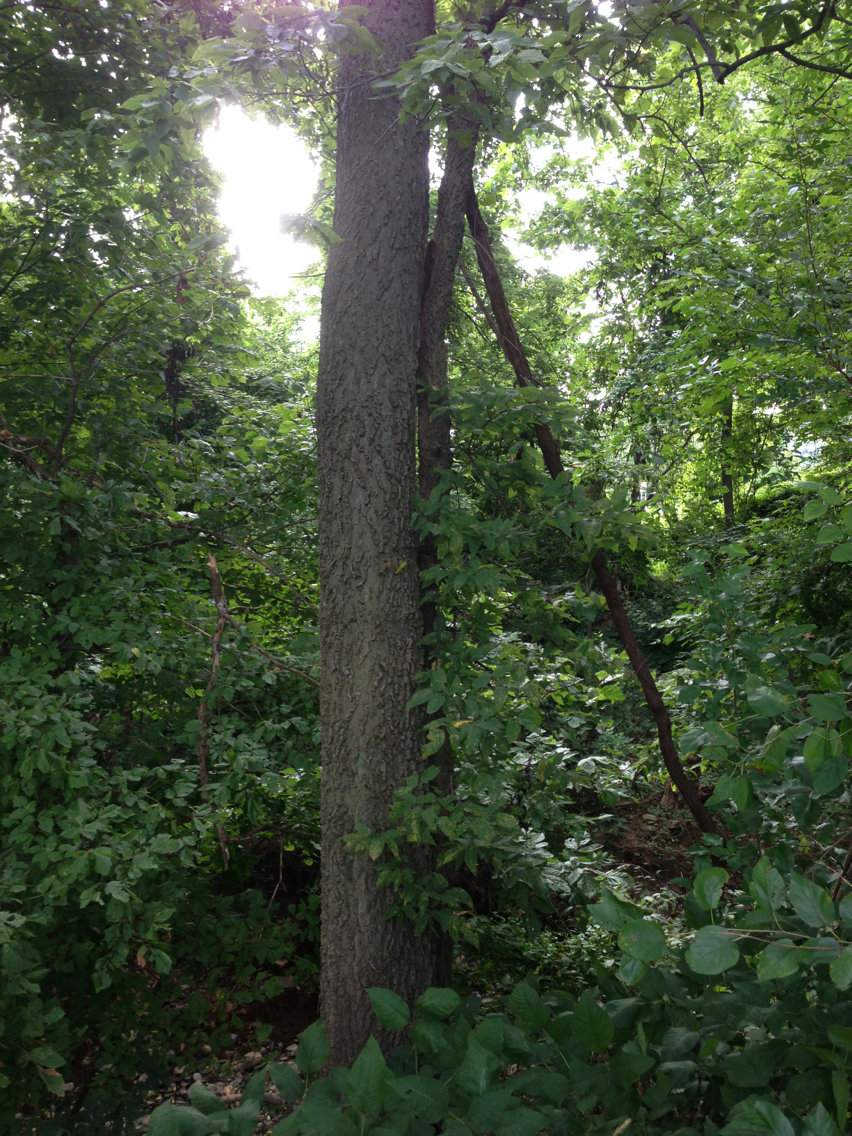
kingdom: Plantae
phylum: Tracheophyta
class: Magnoliopsida
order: Rosales
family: Cannabaceae
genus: Celtis
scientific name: Celtis occidentalis
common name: Common hackberry
